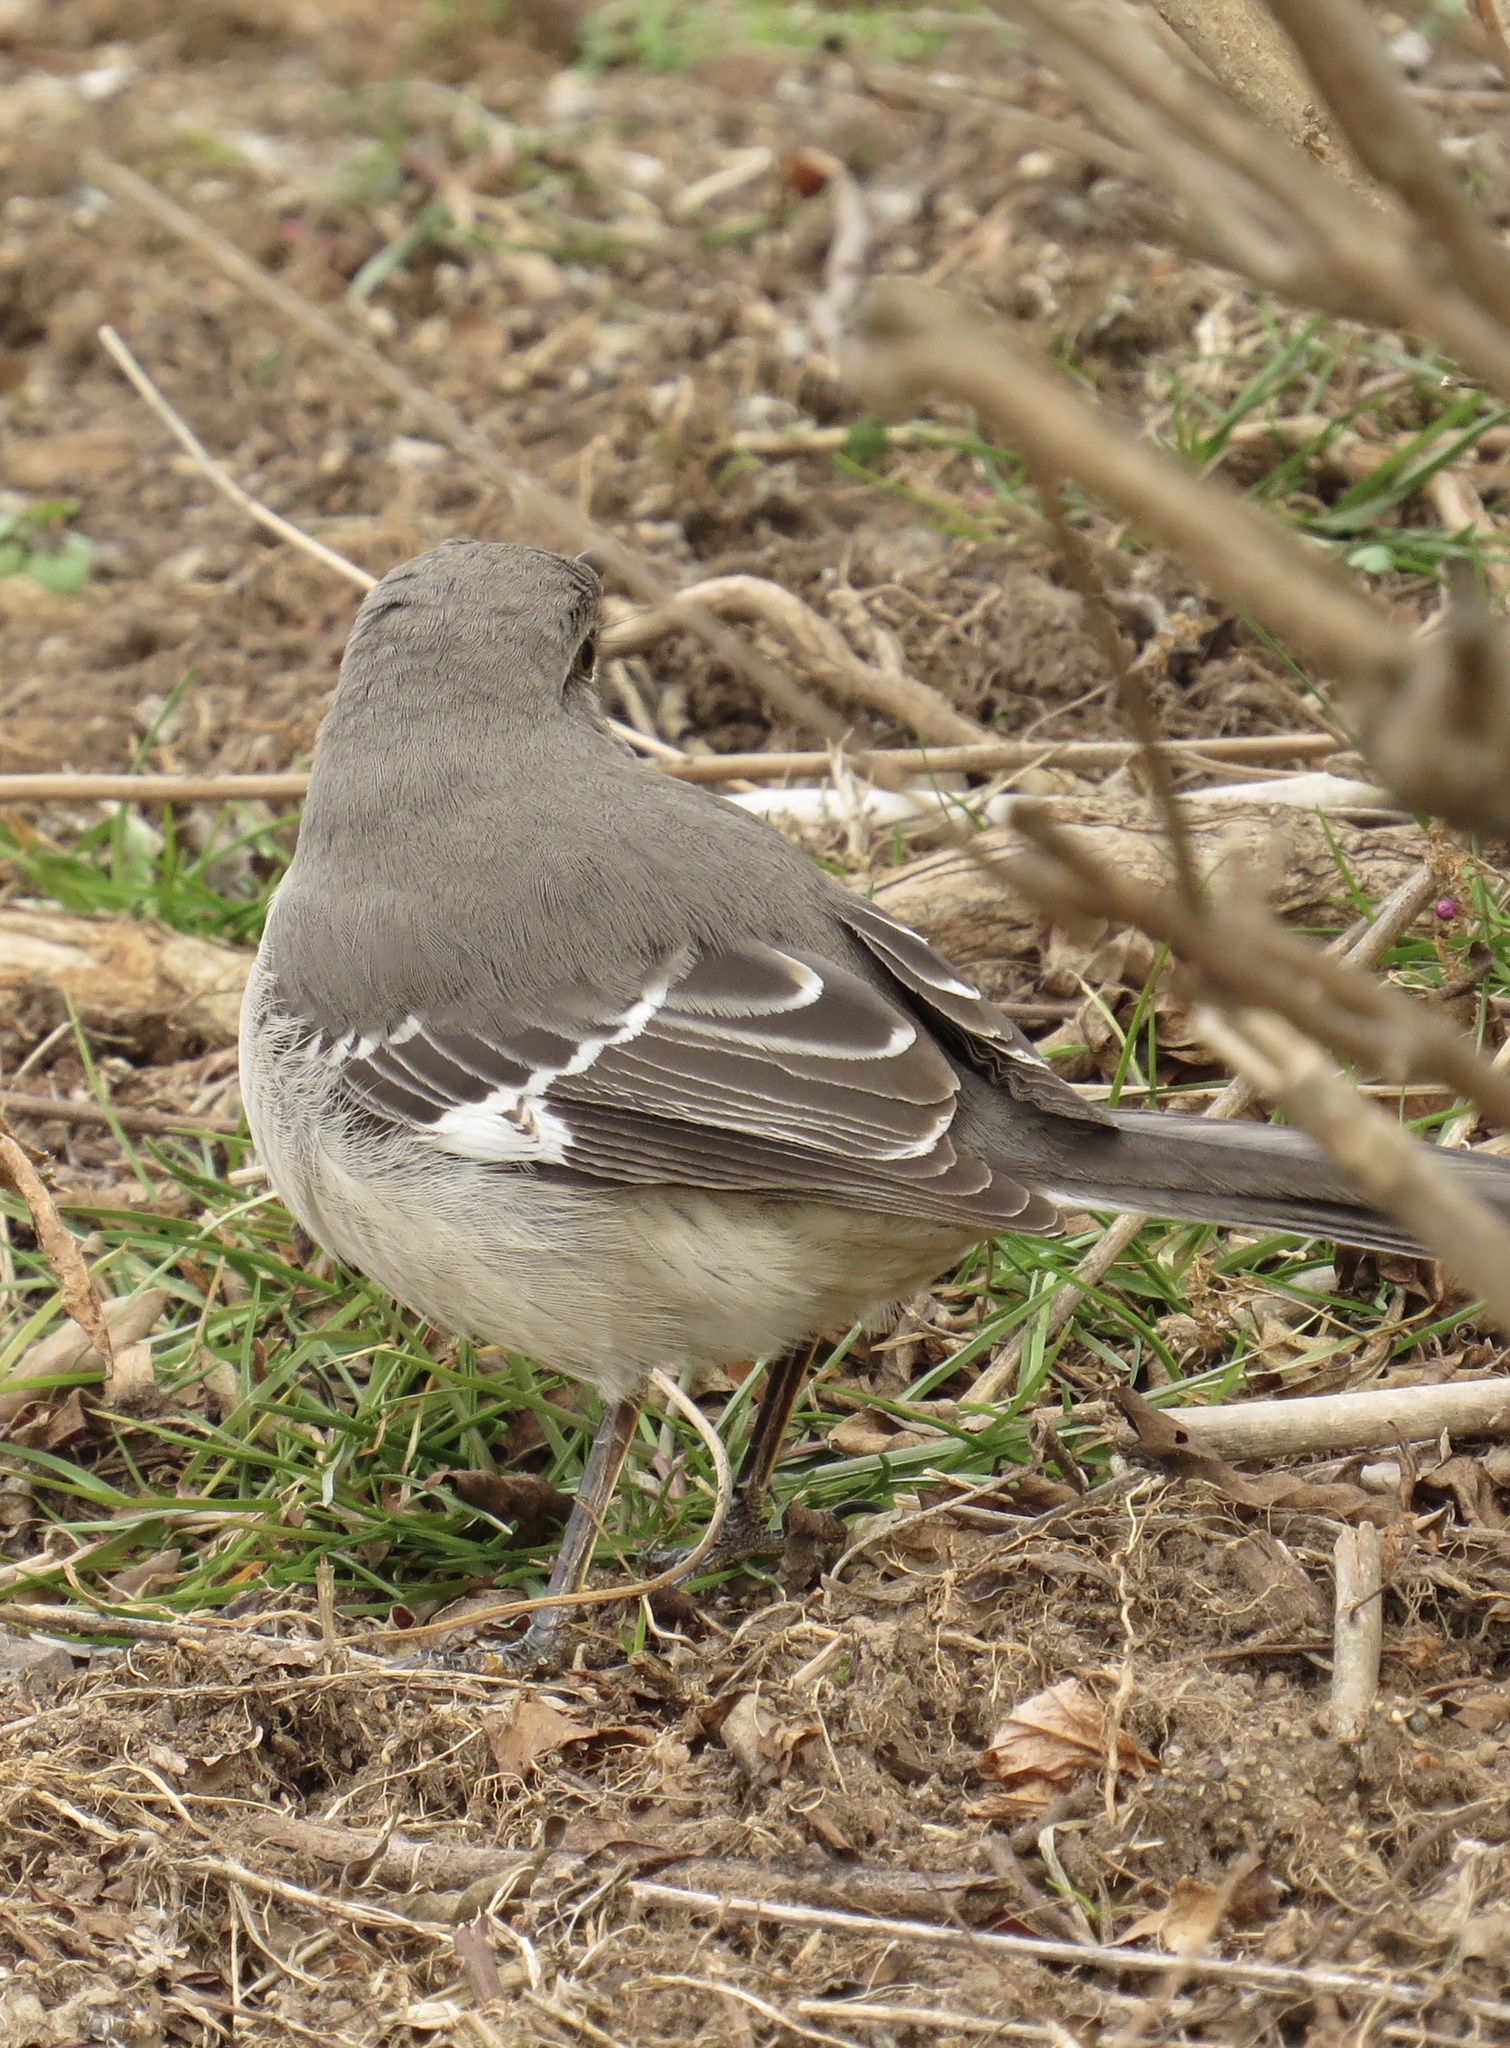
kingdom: Animalia
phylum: Chordata
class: Aves
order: Passeriformes
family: Mimidae
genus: Mimus
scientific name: Mimus polyglottos
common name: Northern mockingbird
